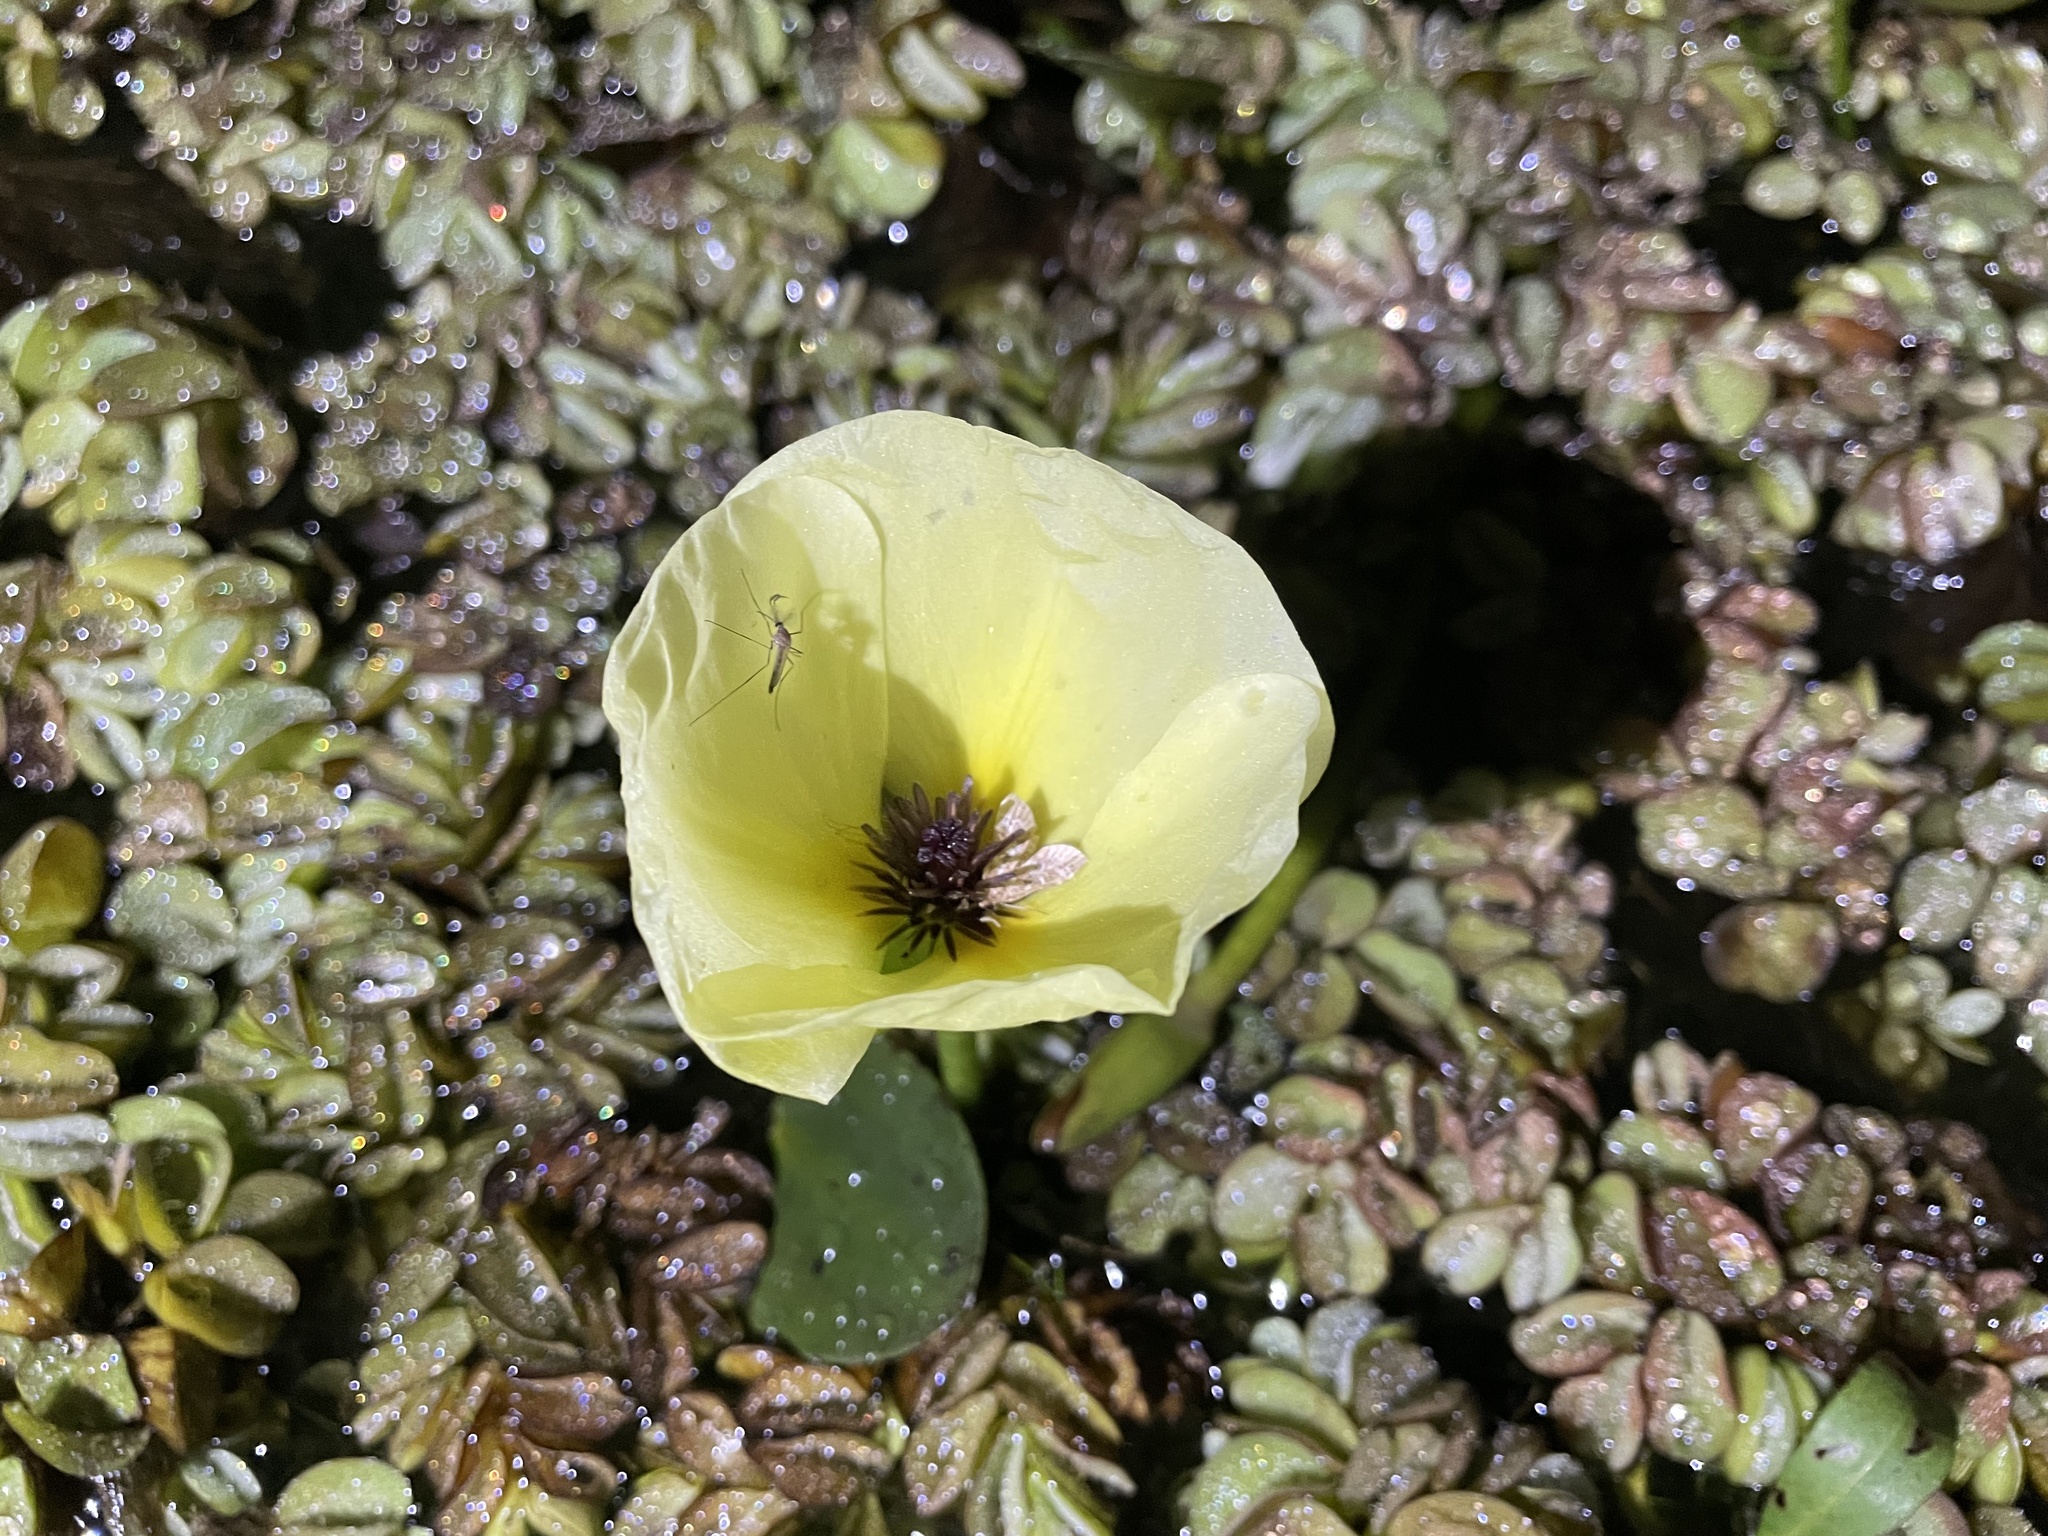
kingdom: Plantae
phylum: Tracheophyta
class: Liliopsida
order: Alismatales
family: Alismataceae
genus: Hydrocleys
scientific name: Hydrocleys nymphoides
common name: Water-poppy
